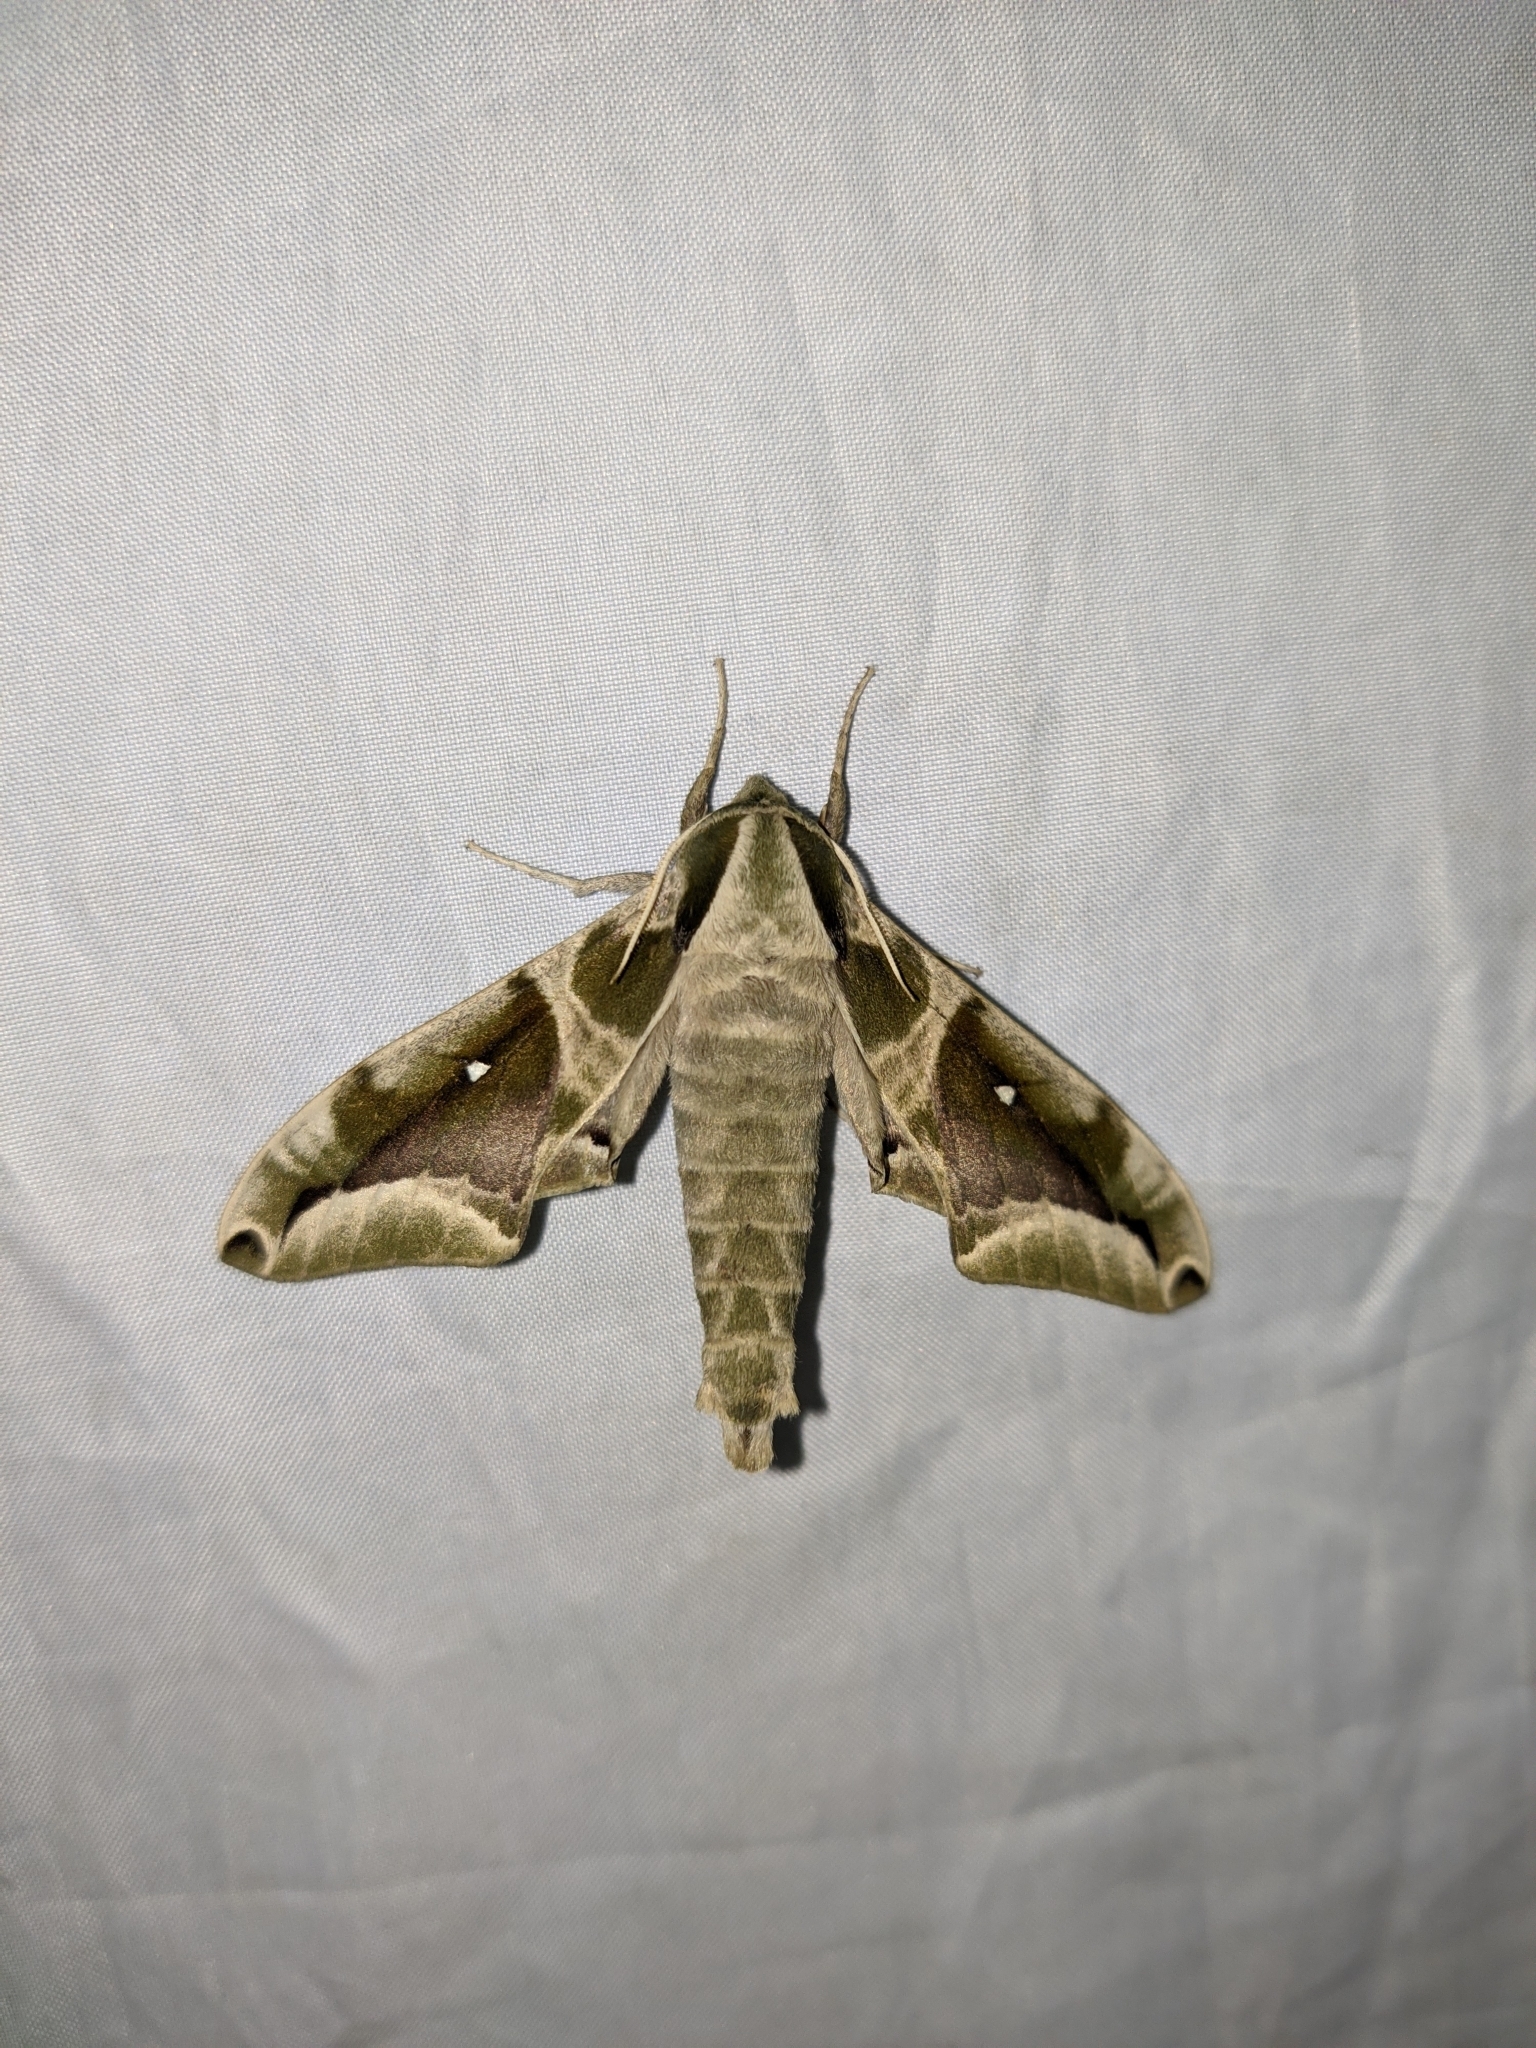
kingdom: Animalia
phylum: Arthropoda
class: Insecta
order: Lepidoptera
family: Sphingidae
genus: Parum
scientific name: Parum colligata
